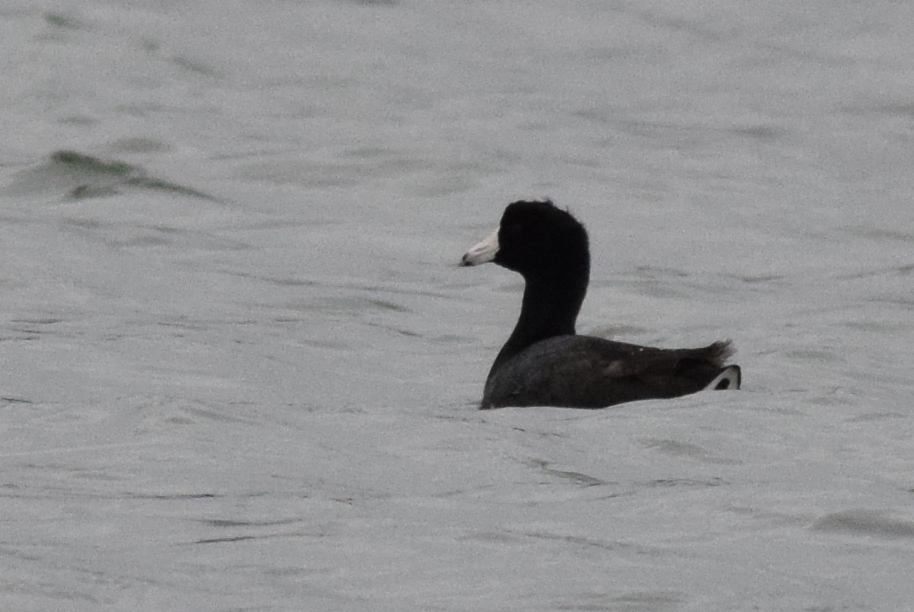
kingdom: Animalia
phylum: Chordata
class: Aves
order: Gruiformes
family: Rallidae
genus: Fulica
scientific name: Fulica americana
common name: American coot
